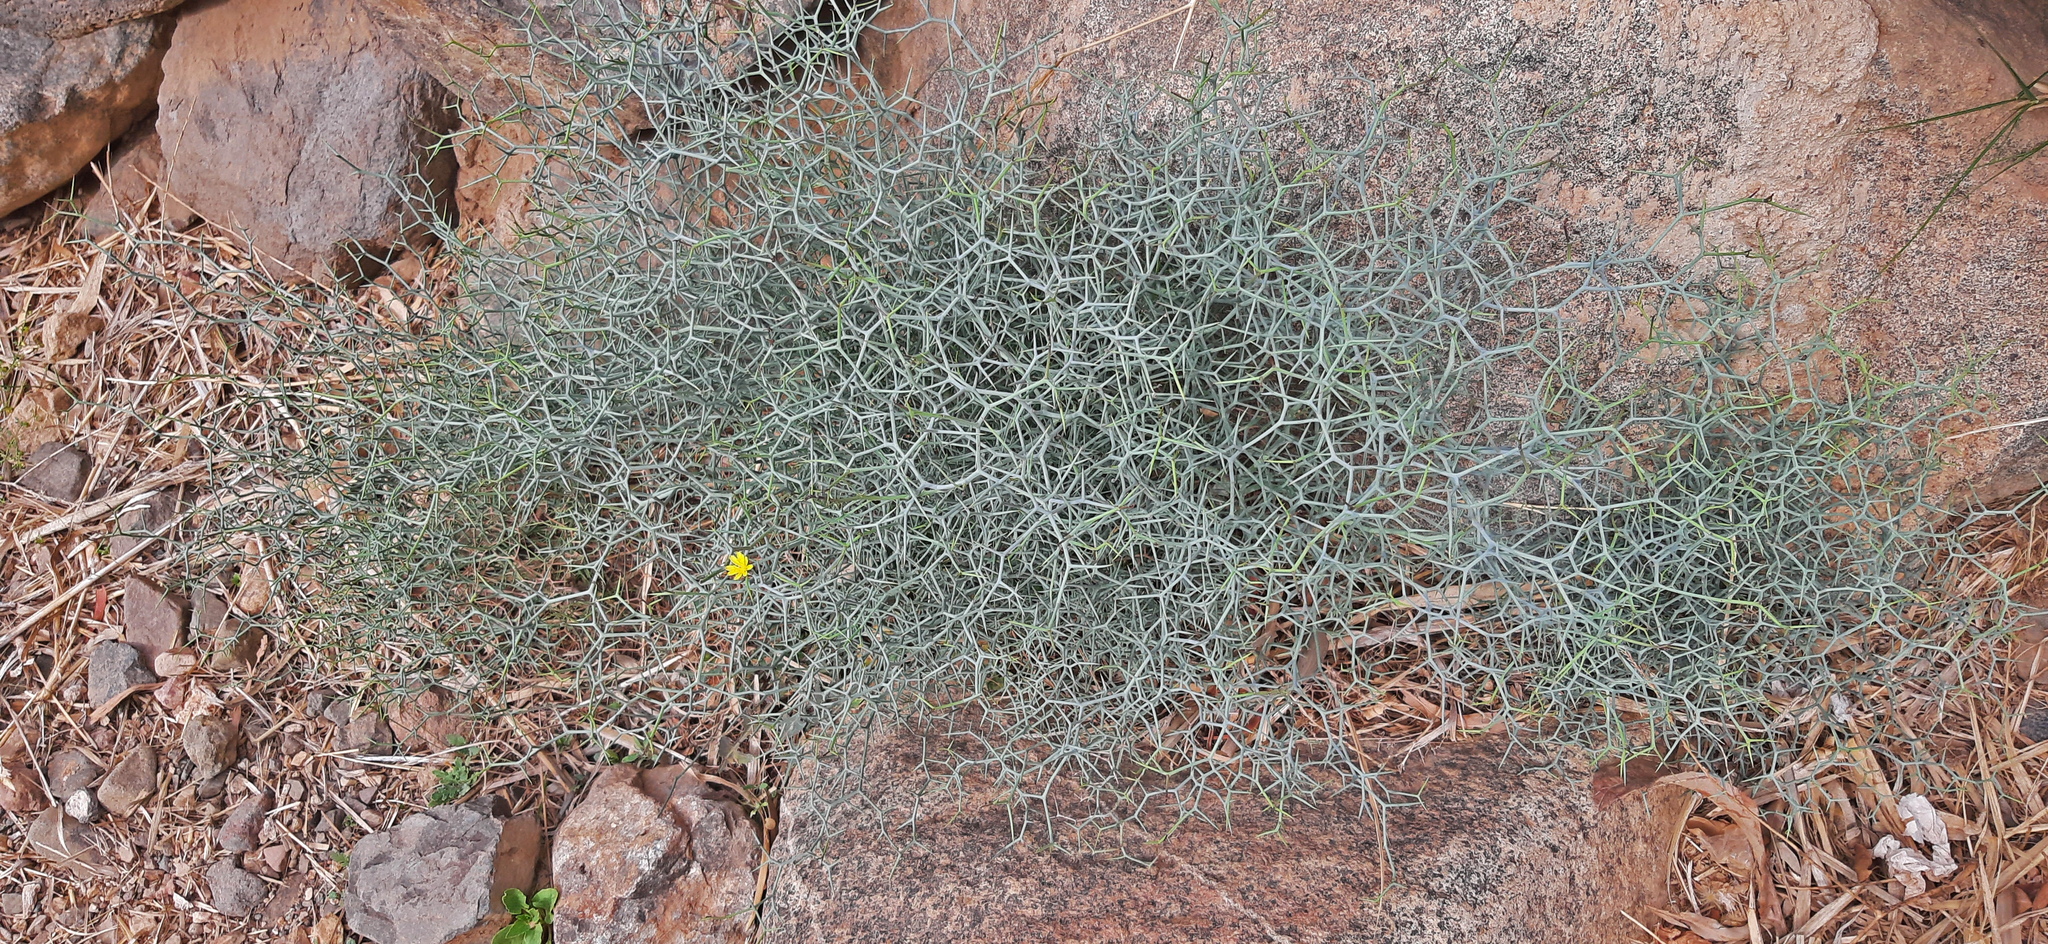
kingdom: Plantae
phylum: Tracheophyta
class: Magnoliopsida
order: Asterales
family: Asteraceae
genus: Launaea
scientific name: Launaea arborescens
